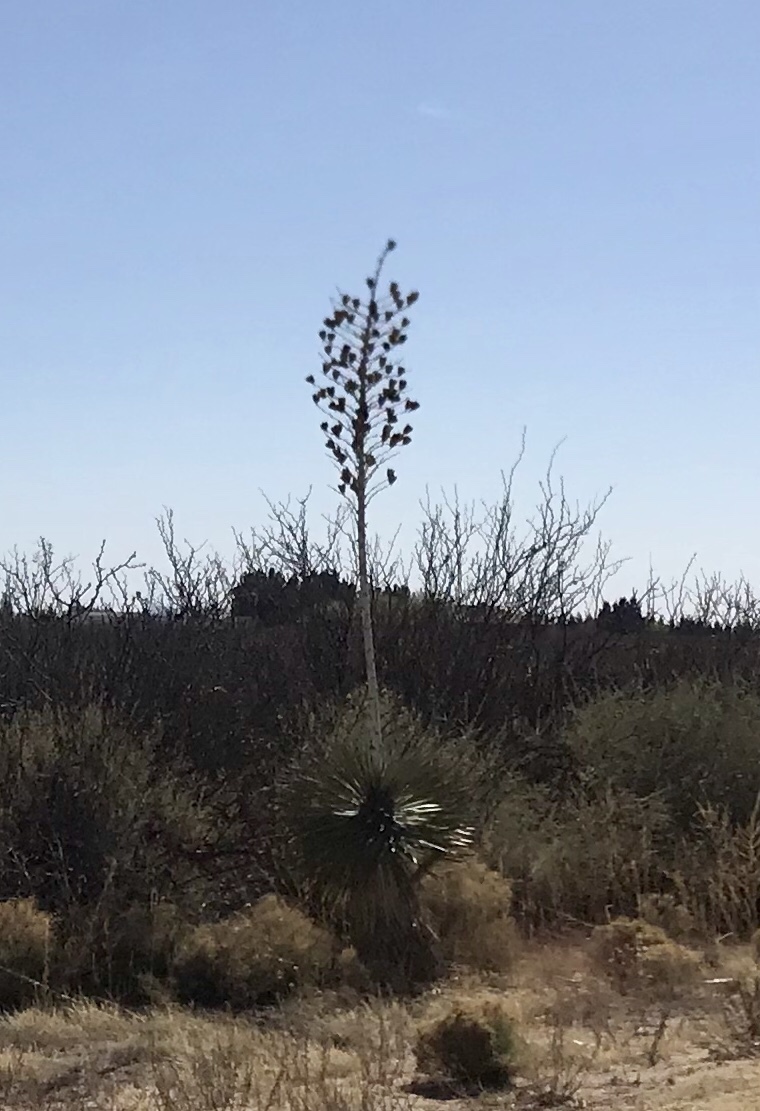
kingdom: Plantae
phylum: Tracheophyta
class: Liliopsida
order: Asparagales
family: Asparagaceae
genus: Yucca
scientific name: Yucca elata
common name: Palmella
